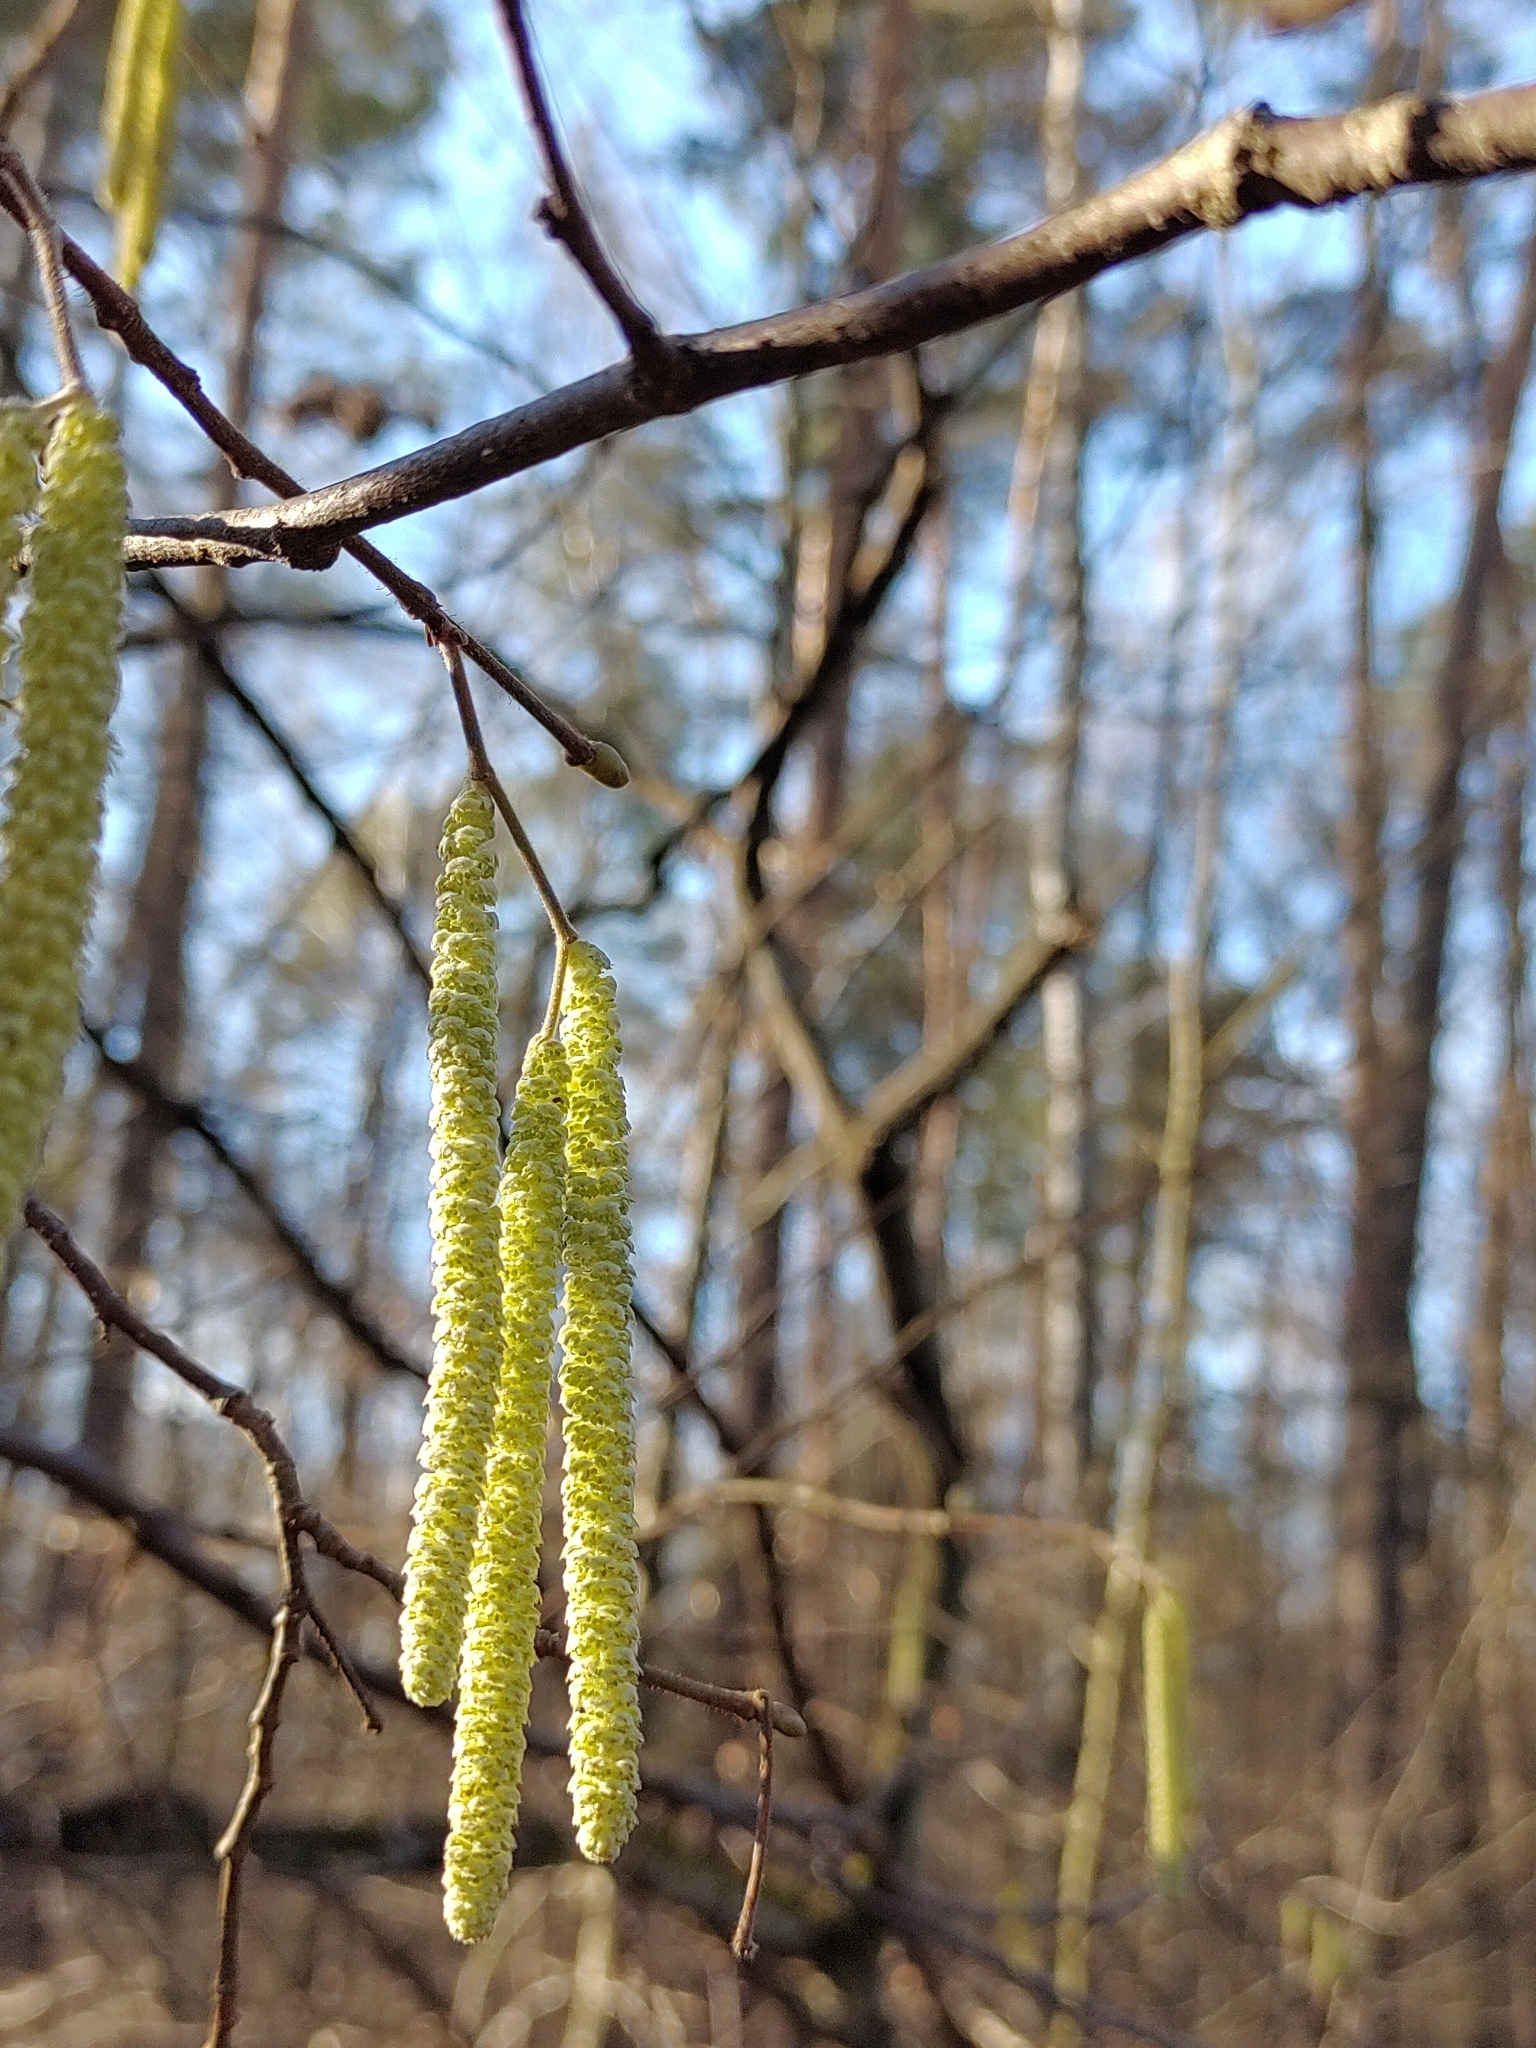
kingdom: Plantae
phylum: Tracheophyta
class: Magnoliopsida
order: Fagales
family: Betulaceae
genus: Corylus
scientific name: Corylus avellana
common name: European hazel
